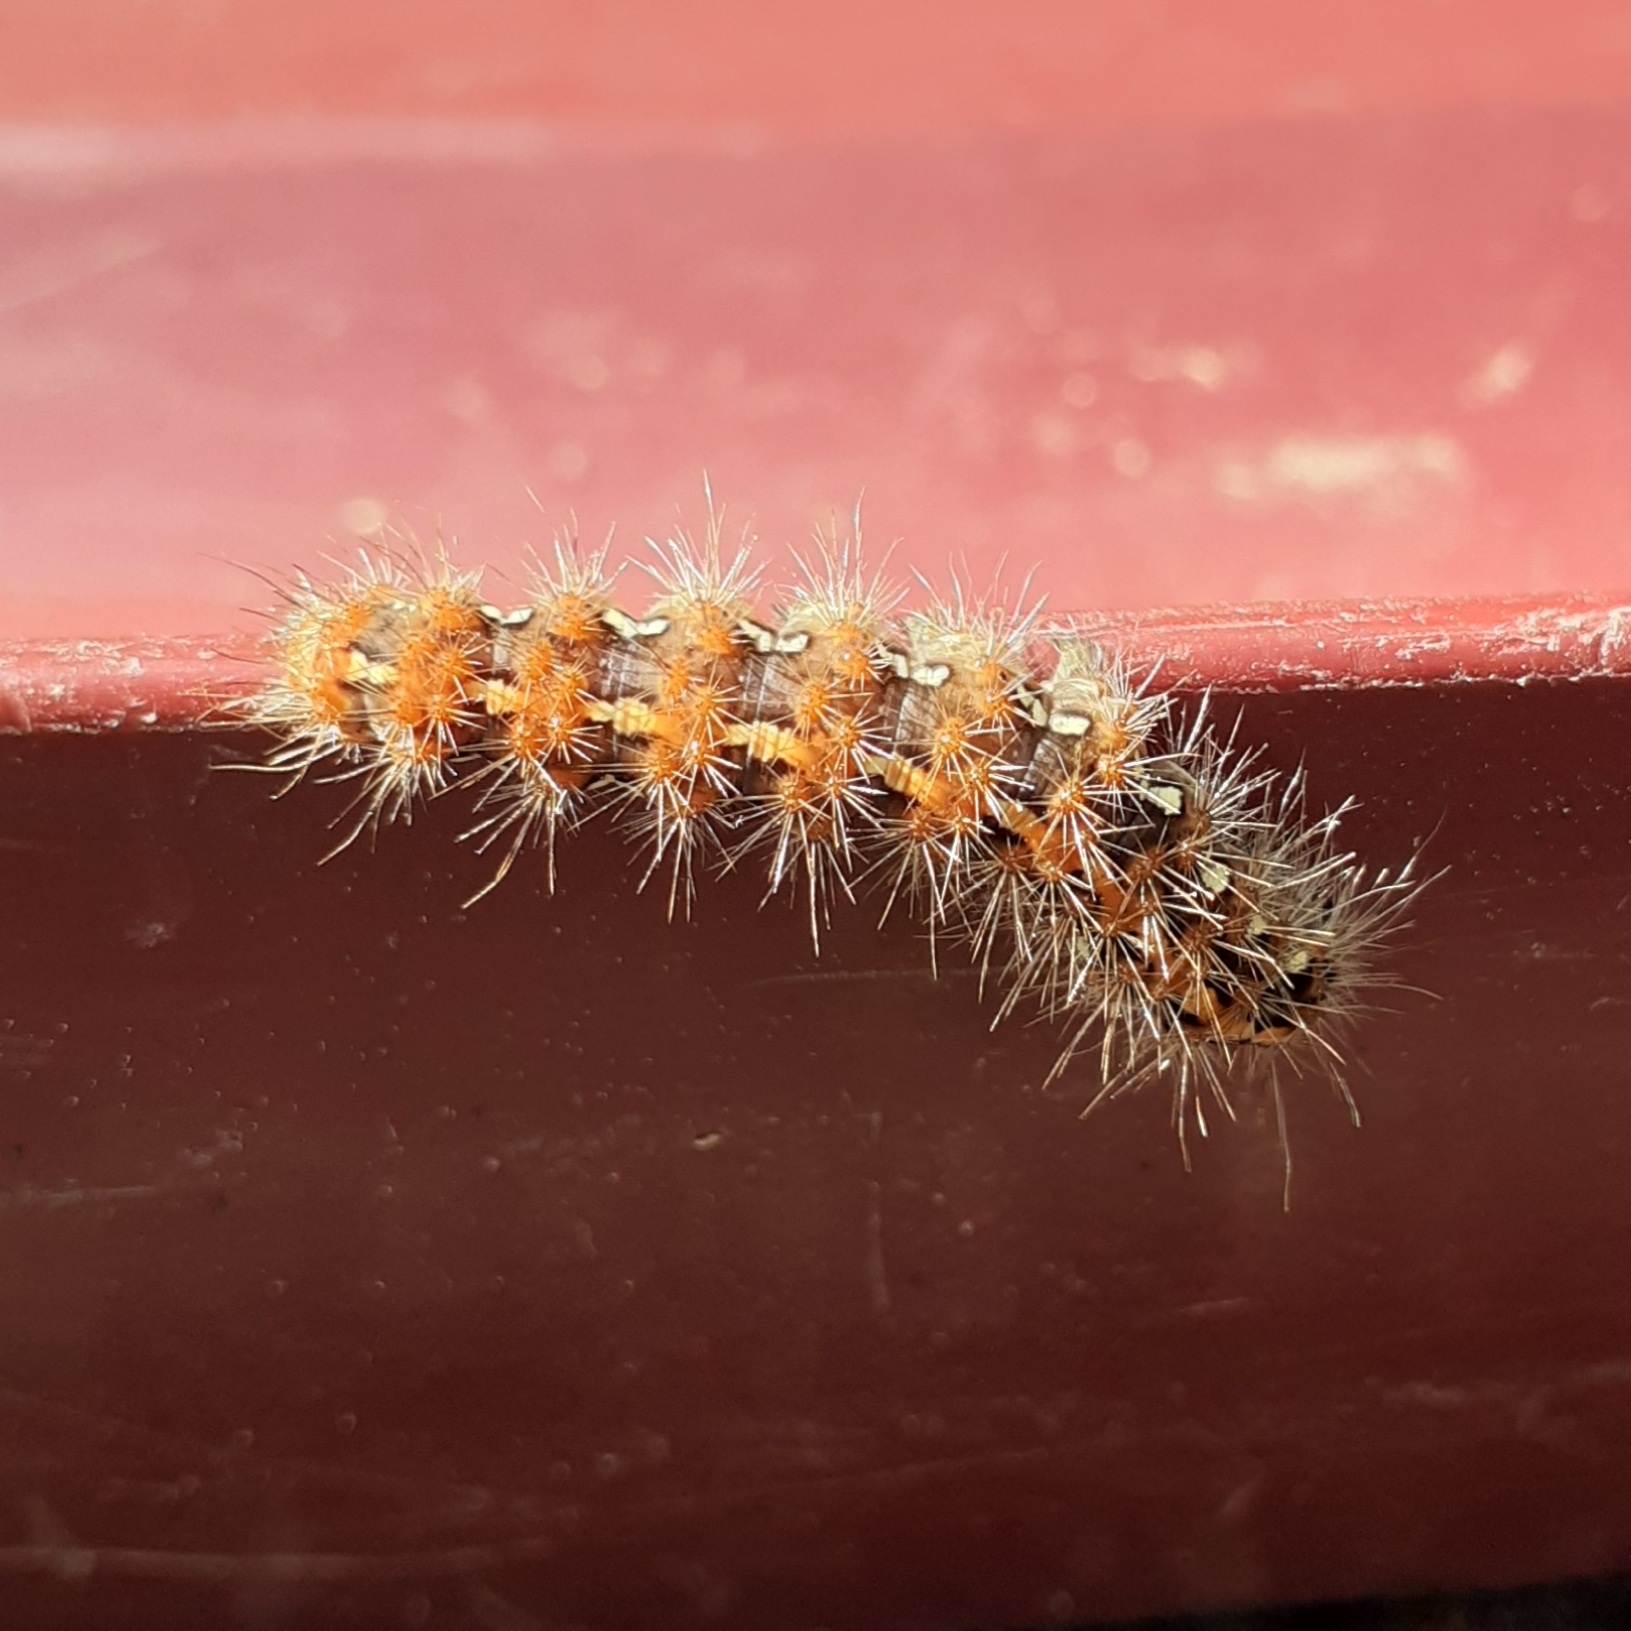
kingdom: Animalia
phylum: Arthropoda
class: Insecta
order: Lepidoptera
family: Erebidae
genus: Euplagia
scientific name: Euplagia quadripunctaria
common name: Jersey tiger
